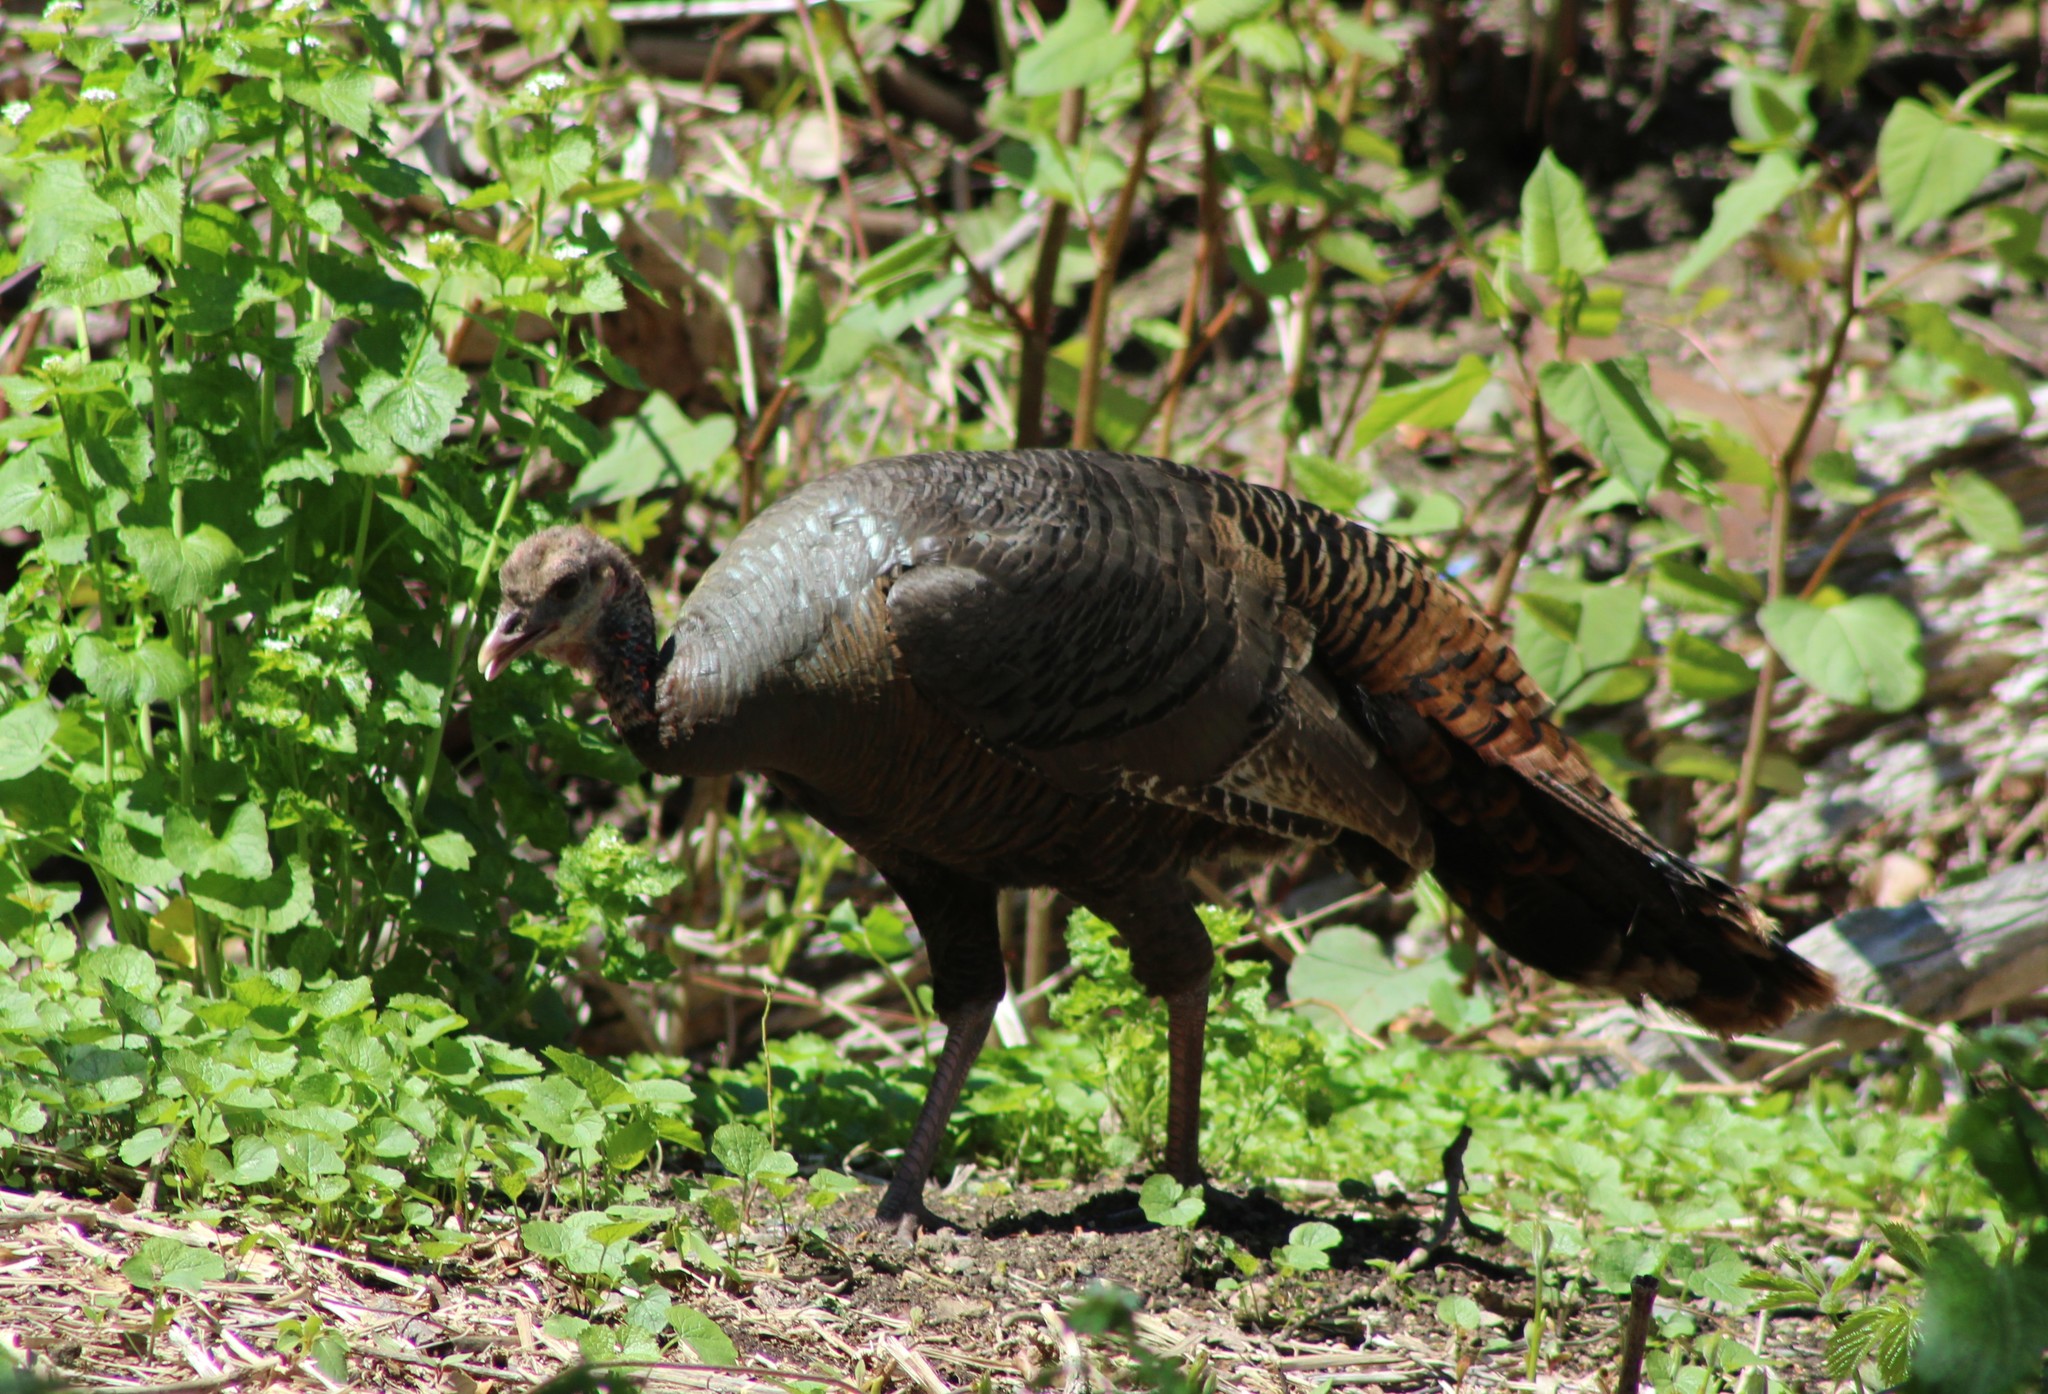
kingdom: Animalia
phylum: Chordata
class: Aves
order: Galliformes
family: Phasianidae
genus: Meleagris
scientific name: Meleagris gallopavo
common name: Wild turkey
